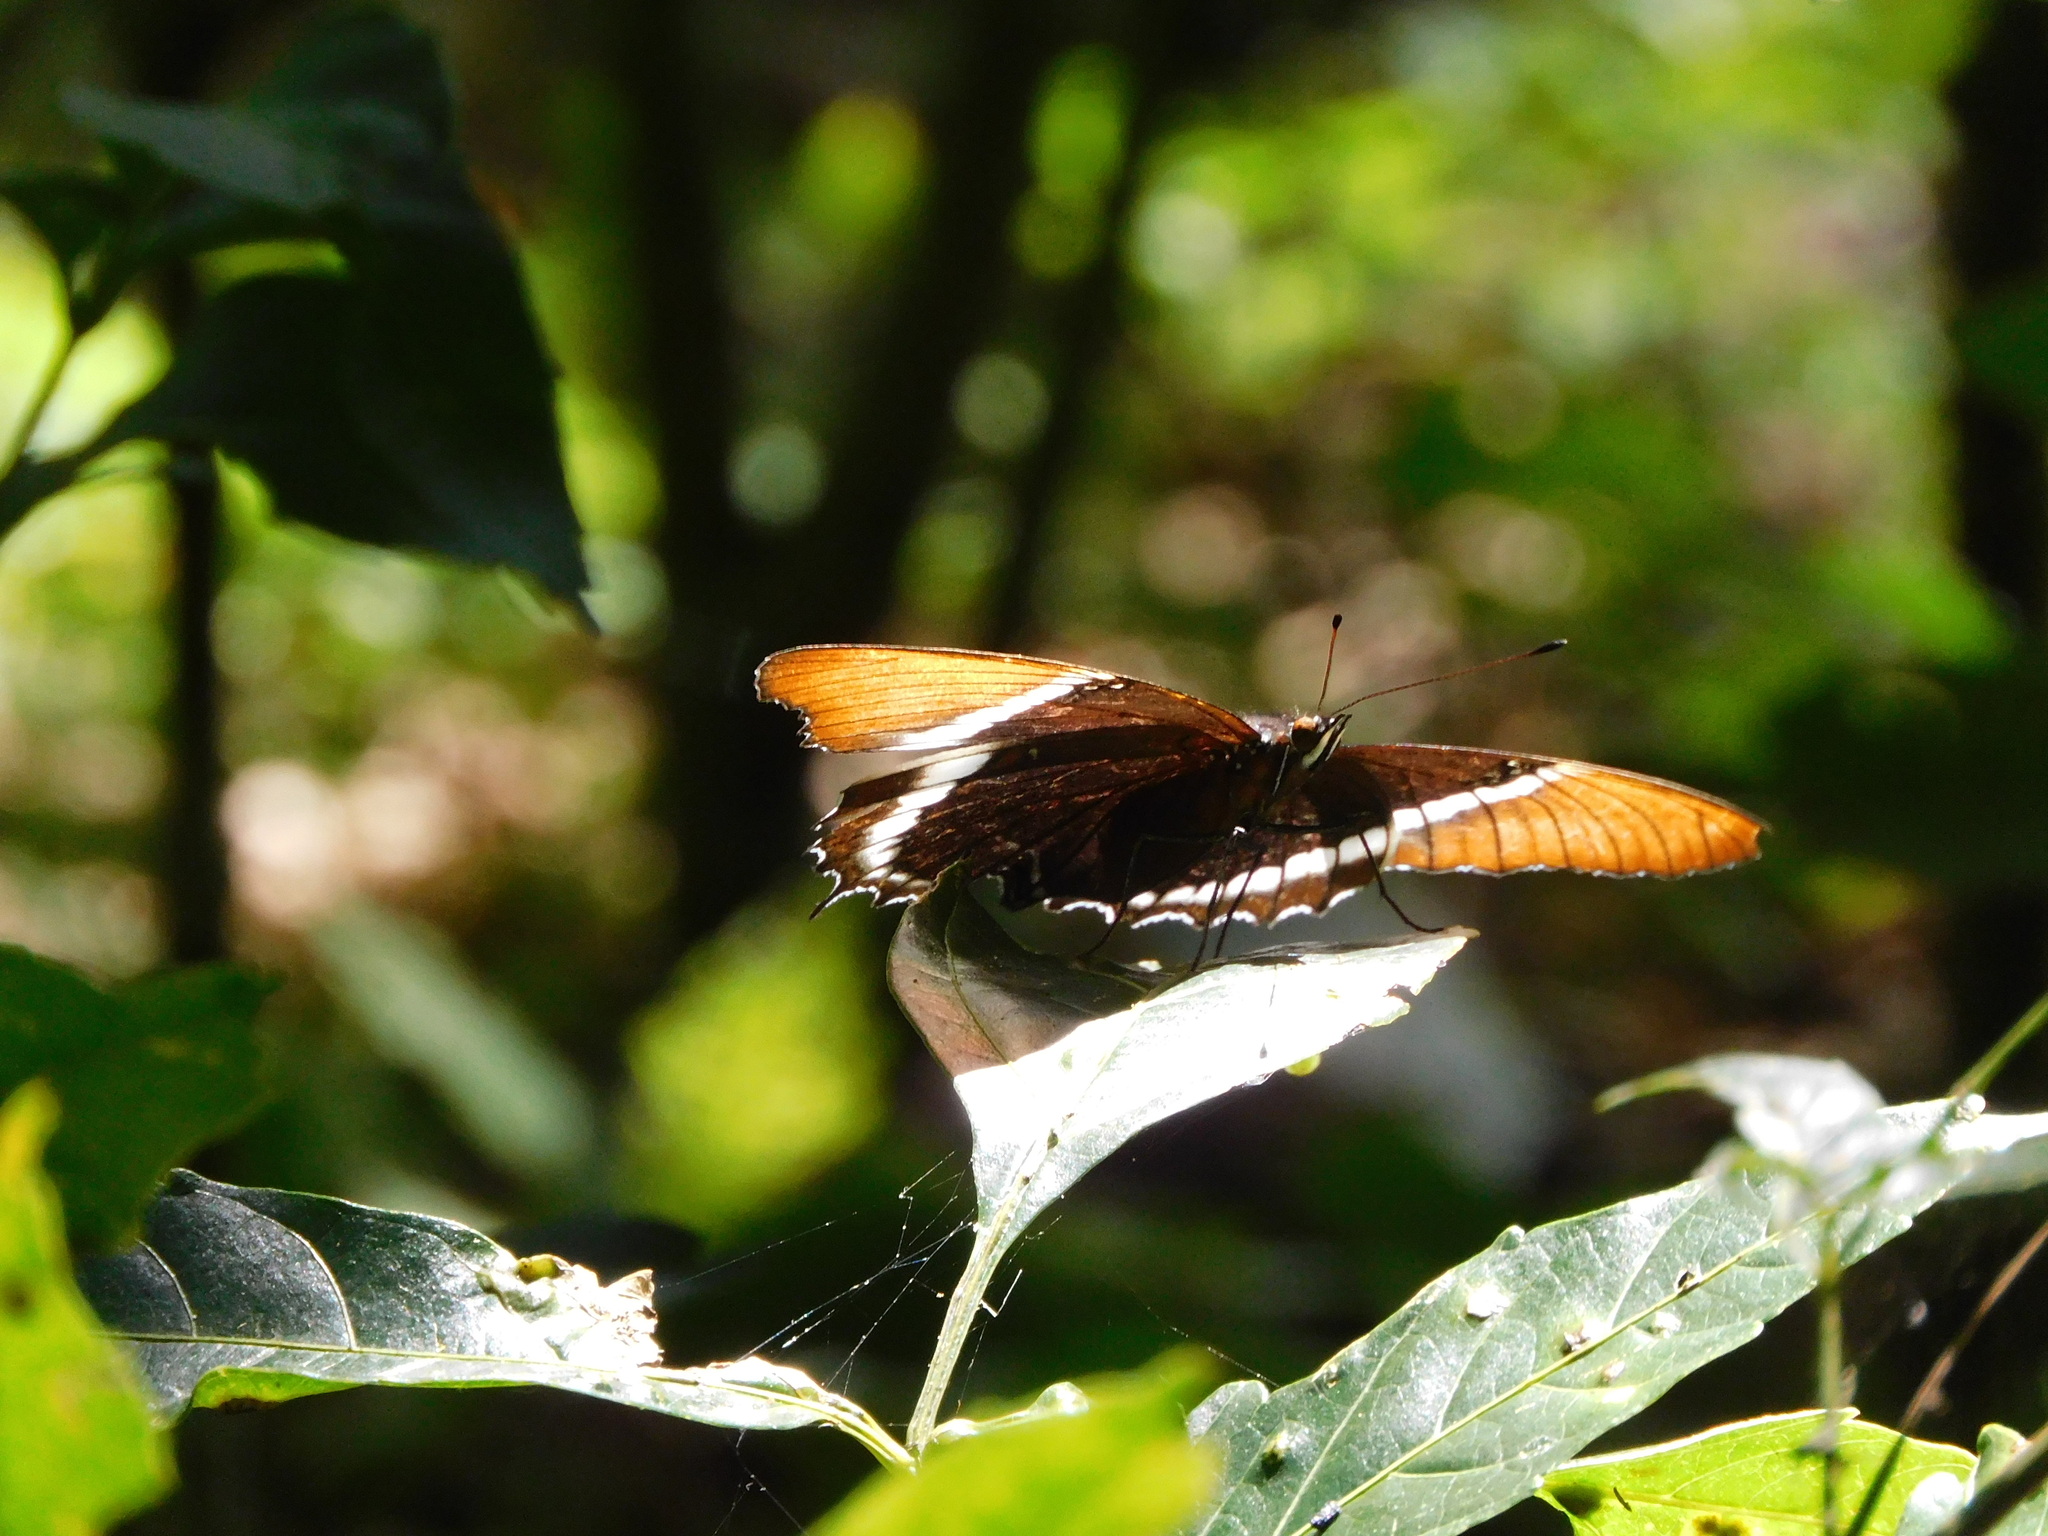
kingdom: Animalia
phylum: Arthropoda
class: Insecta
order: Lepidoptera
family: Nymphalidae
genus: Siproeta
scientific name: Siproeta epaphus
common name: Rusty-tipped page
